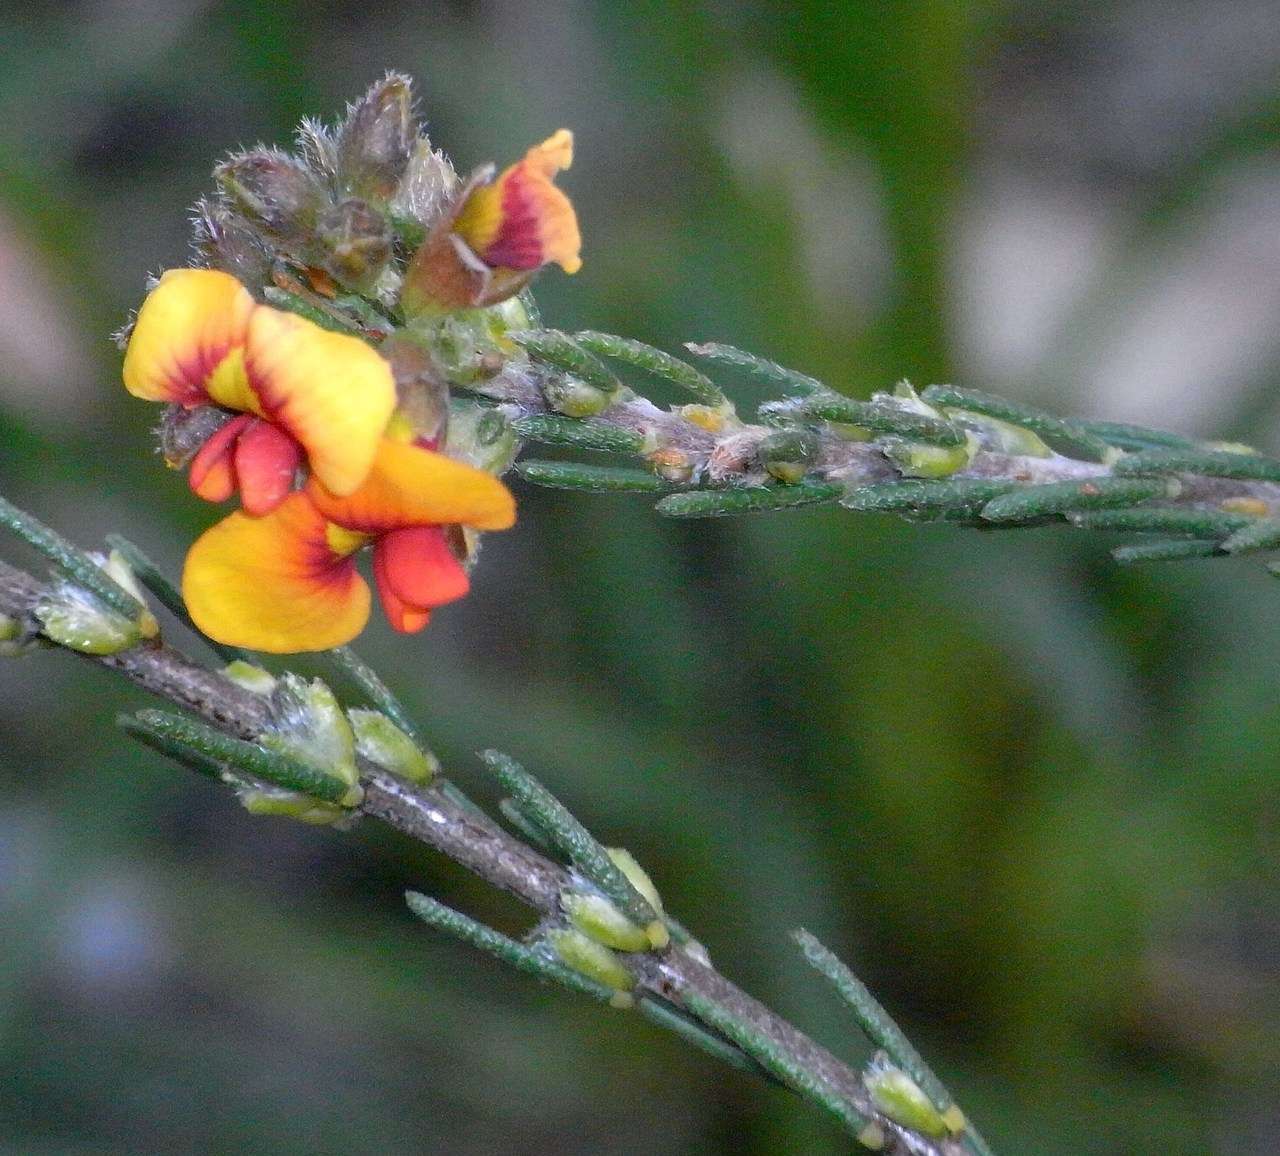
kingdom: Plantae
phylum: Tracheophyta
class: Magnoliopsida
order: Fabales
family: Fabaceae
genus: Dillwynia
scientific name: Dillwynia sericea
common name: Showy parrot-pea
